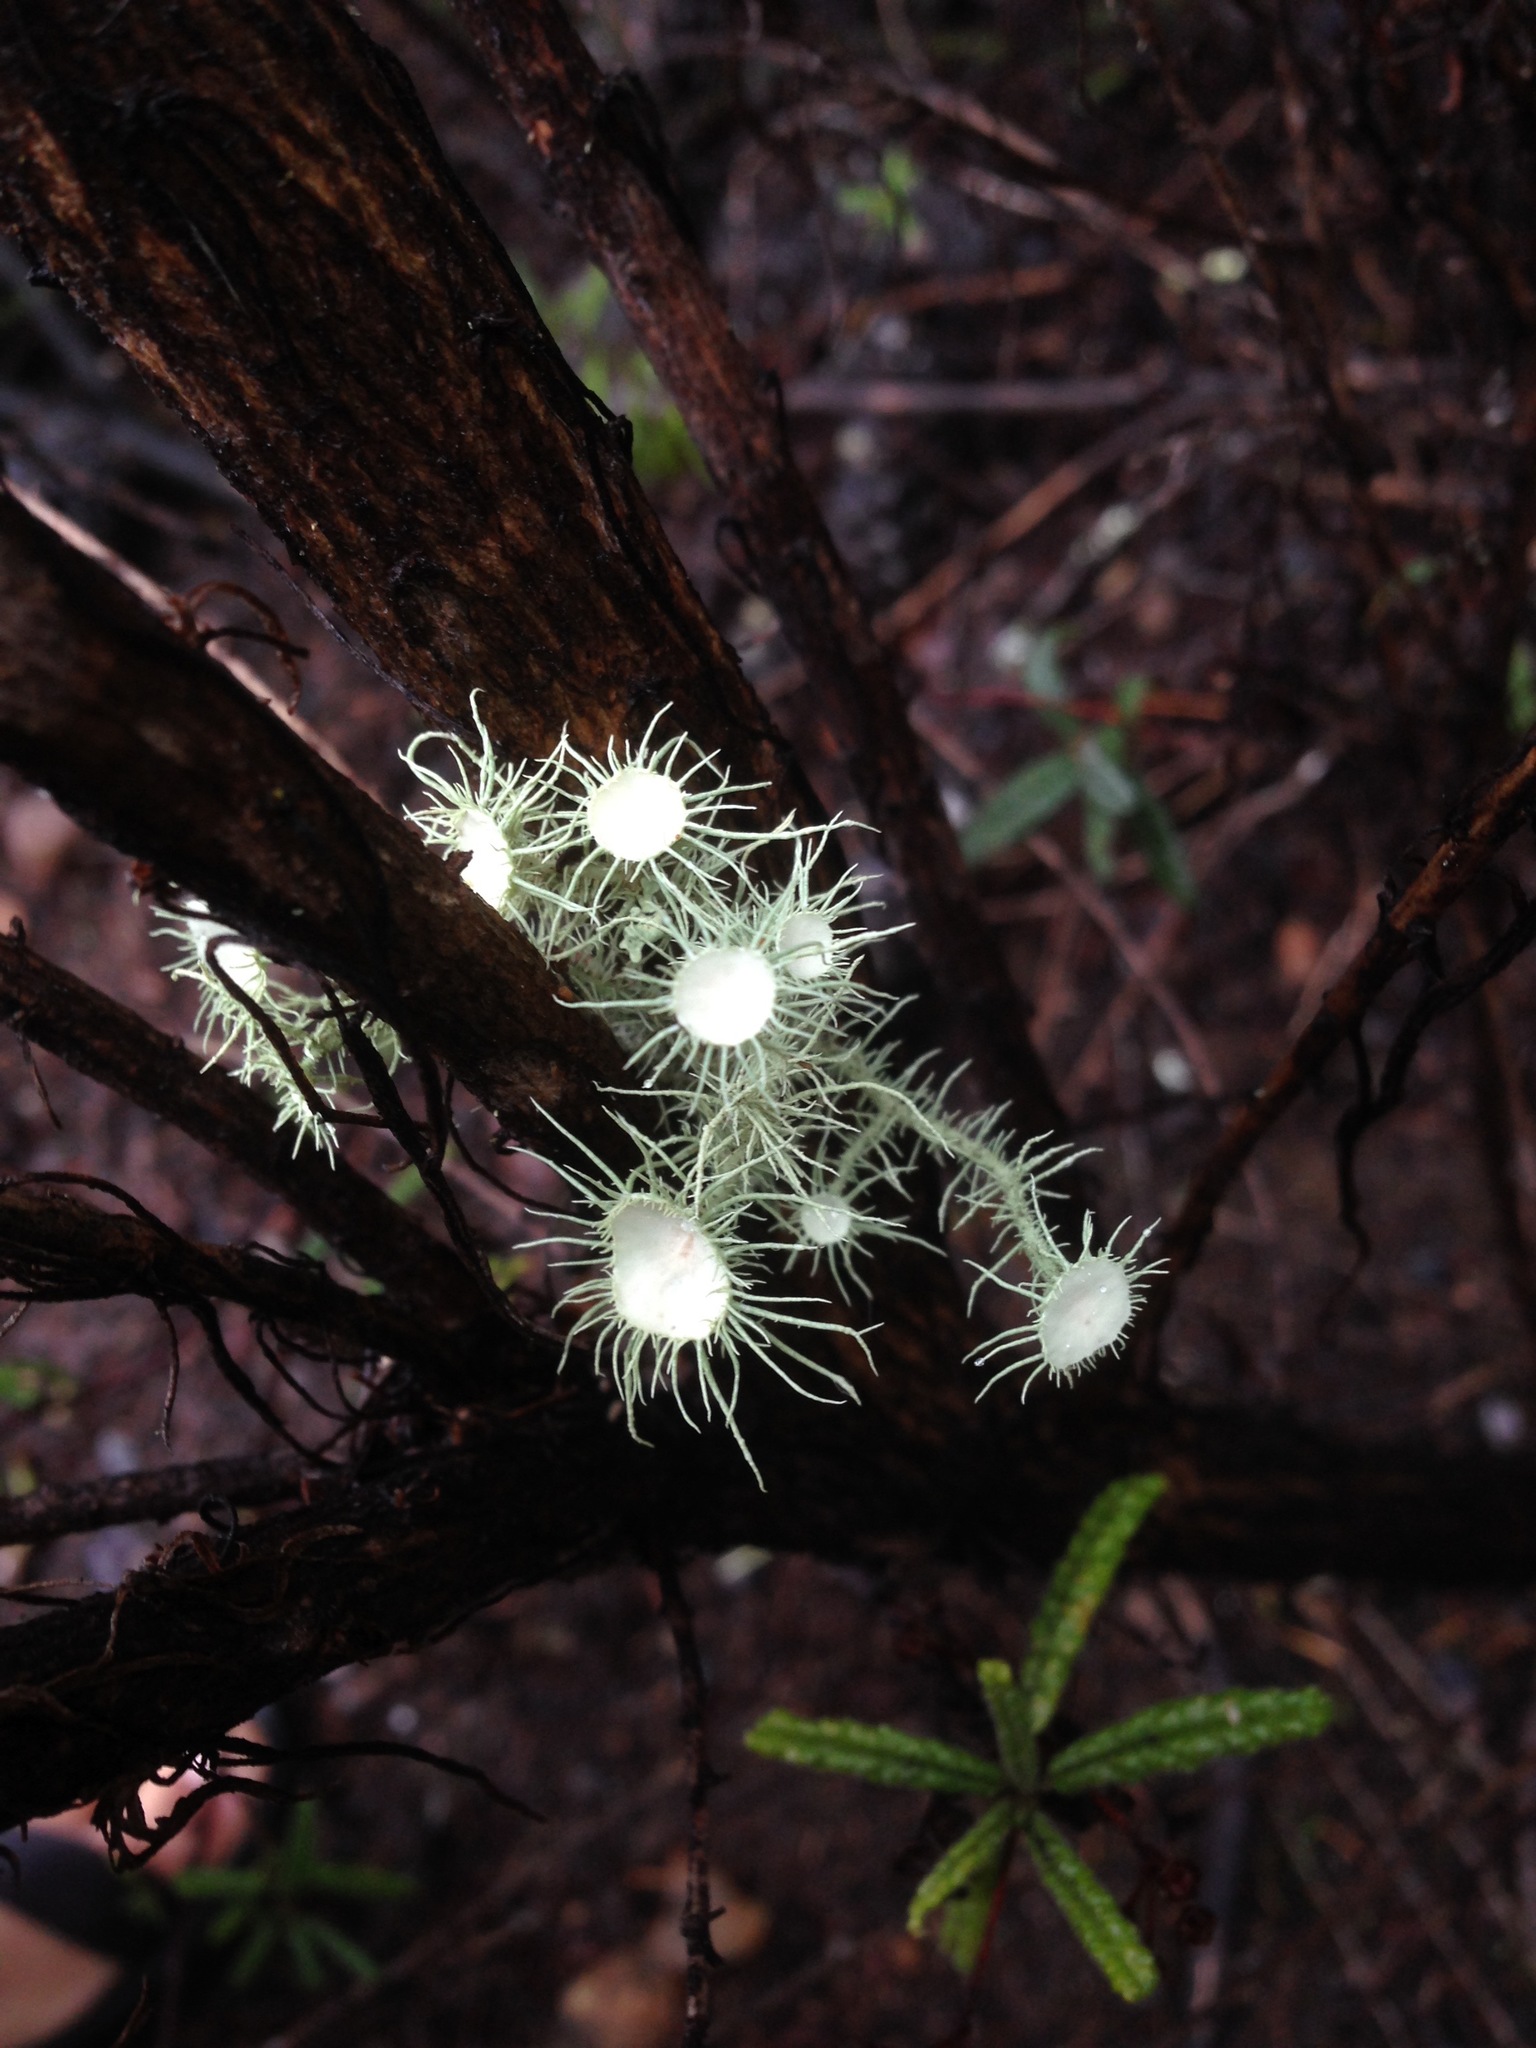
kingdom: Fungi
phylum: Ascomycota
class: Lecanoromycetes
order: Lecanorales
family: Parmeliaceae
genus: Usnea
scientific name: Usnea intermedia
